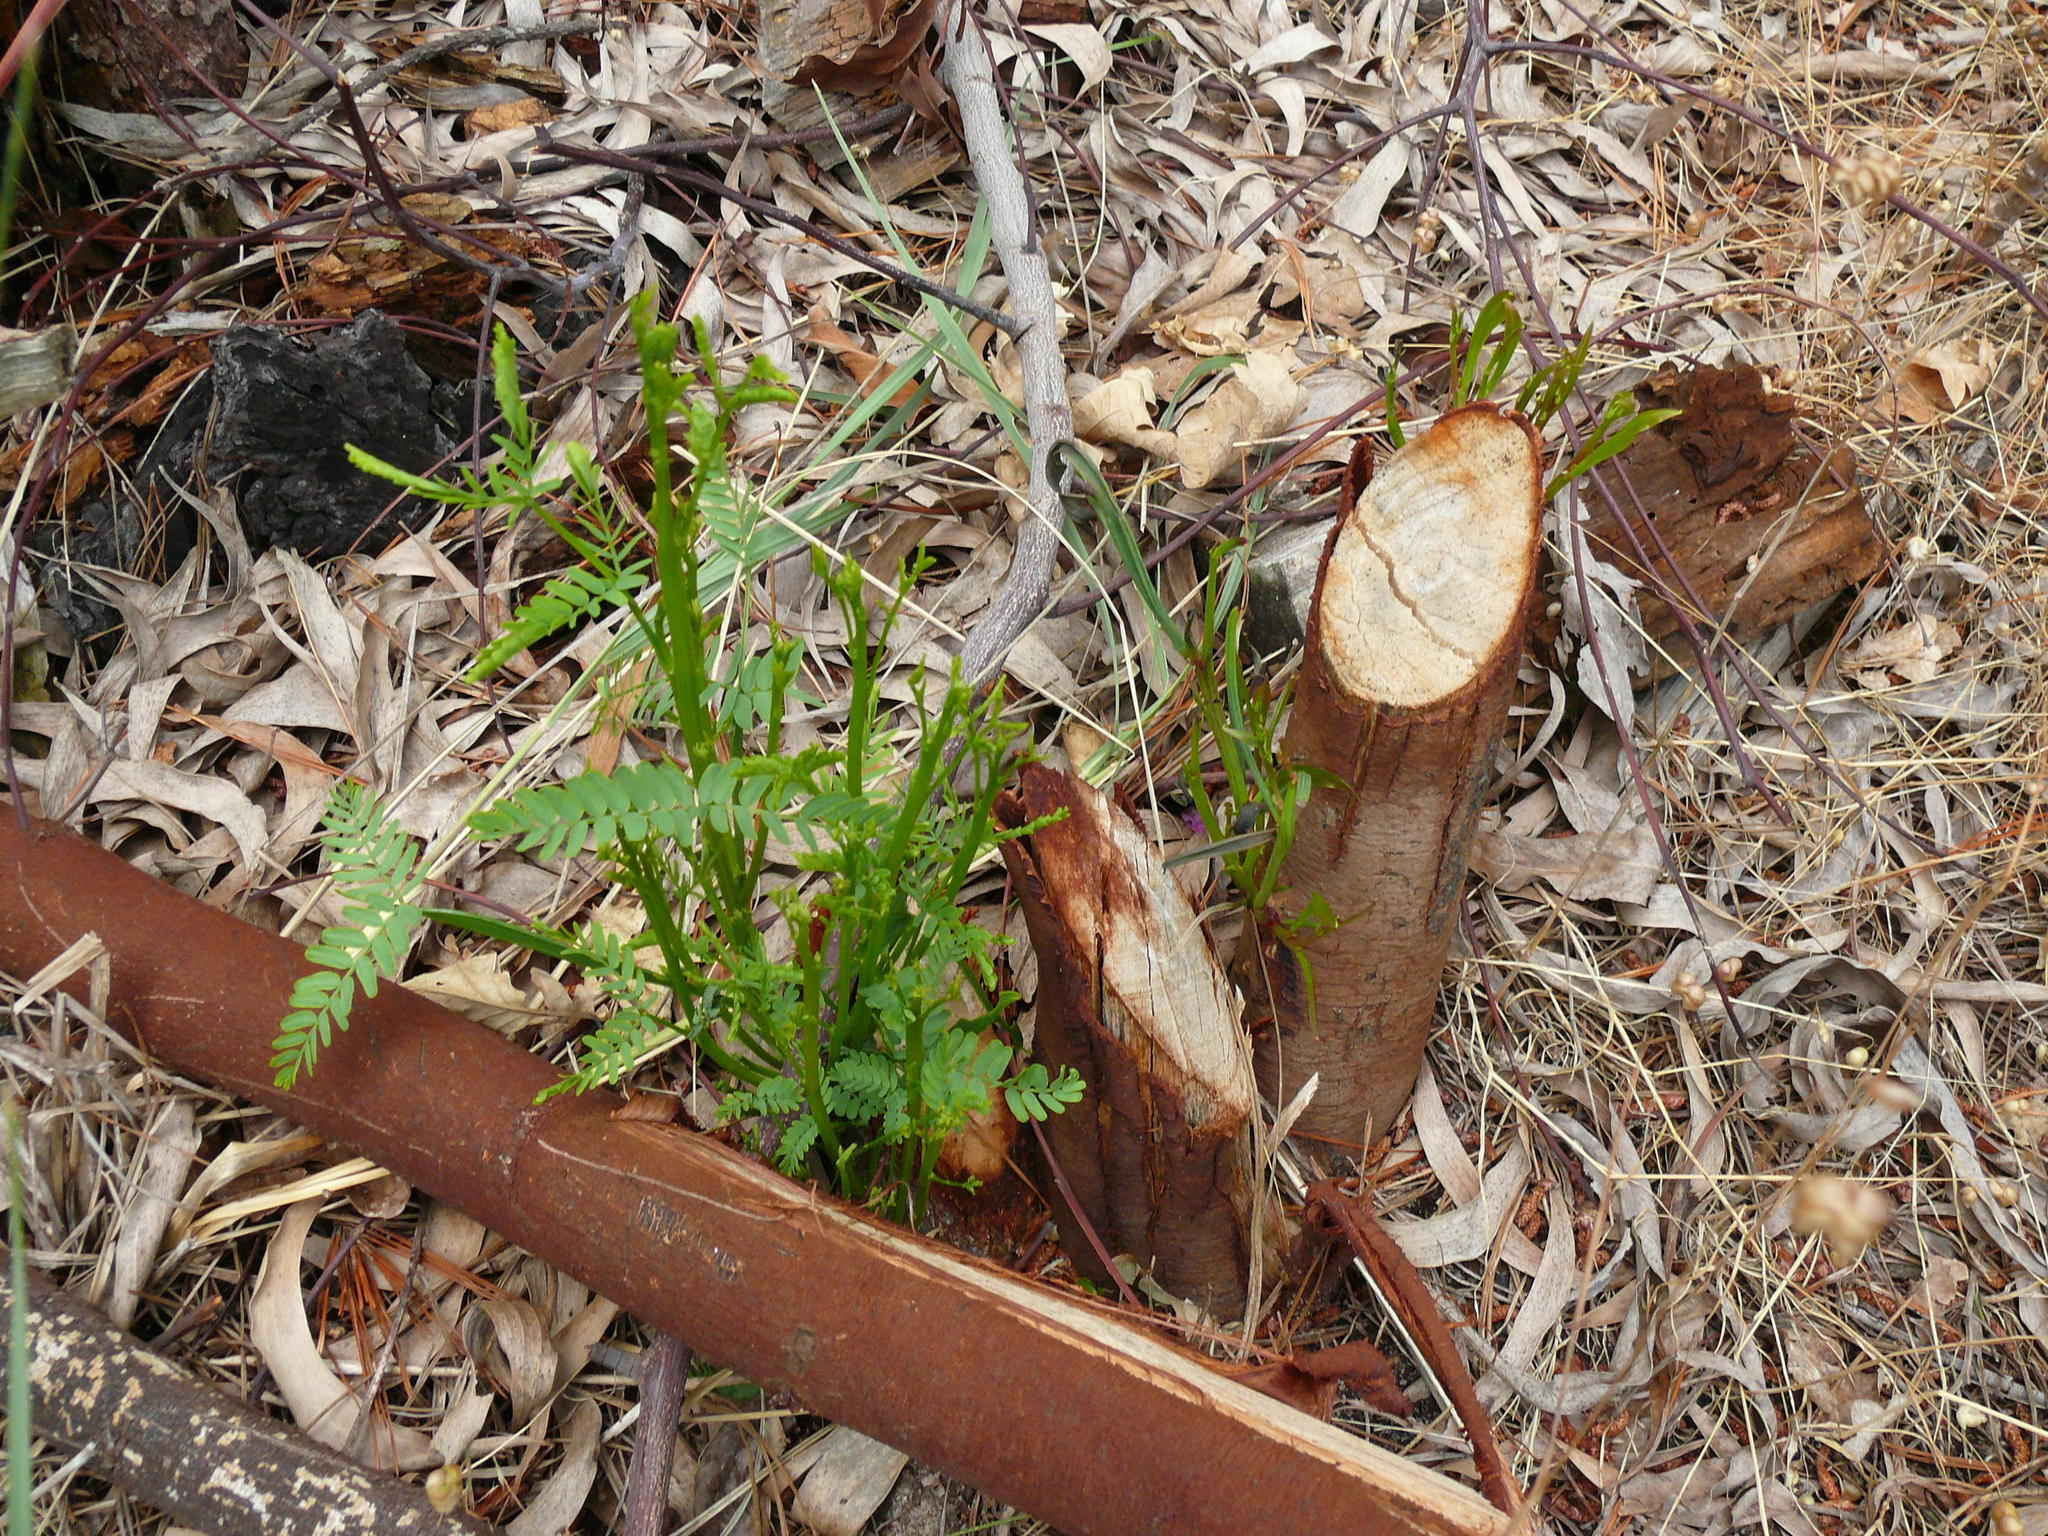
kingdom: Plantae
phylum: Tracheophyta
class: Magnoliopsida
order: Fabales
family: Fabaceae
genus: Acacia
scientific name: Acacia implexa
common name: Black wattle
